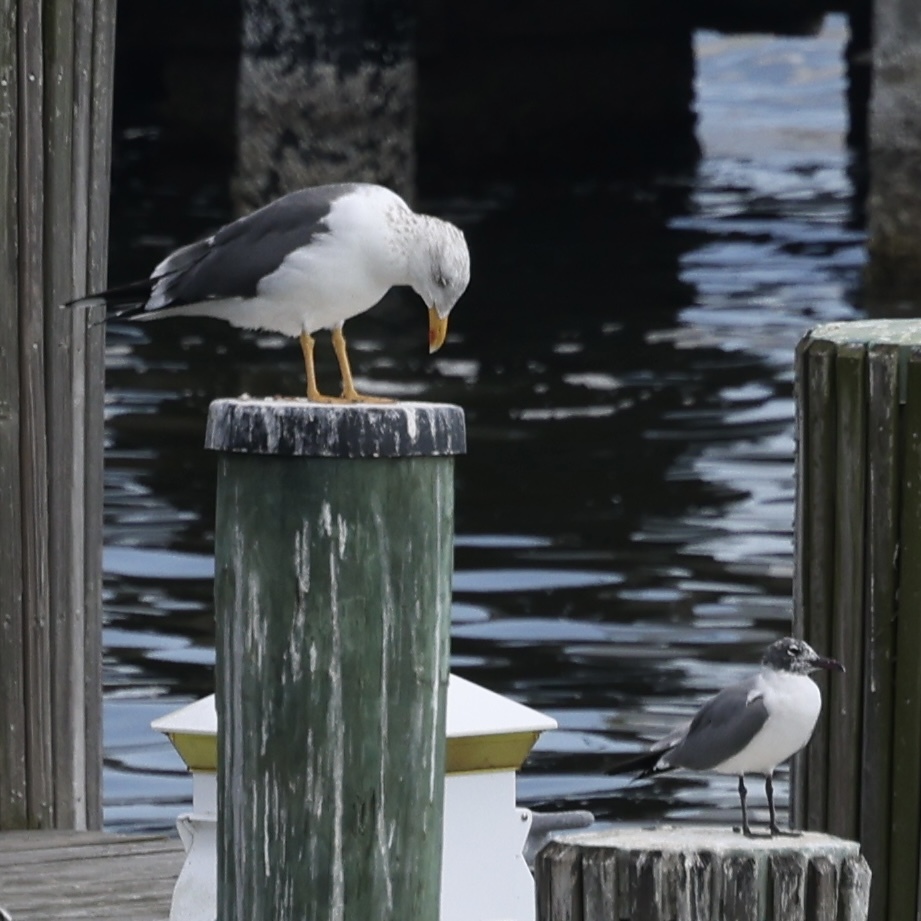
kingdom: Animalia
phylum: Chordata
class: Aves
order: Charadriiformes
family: Laridae
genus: Larus
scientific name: Larus fuscus
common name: Lesser black-backed gull
